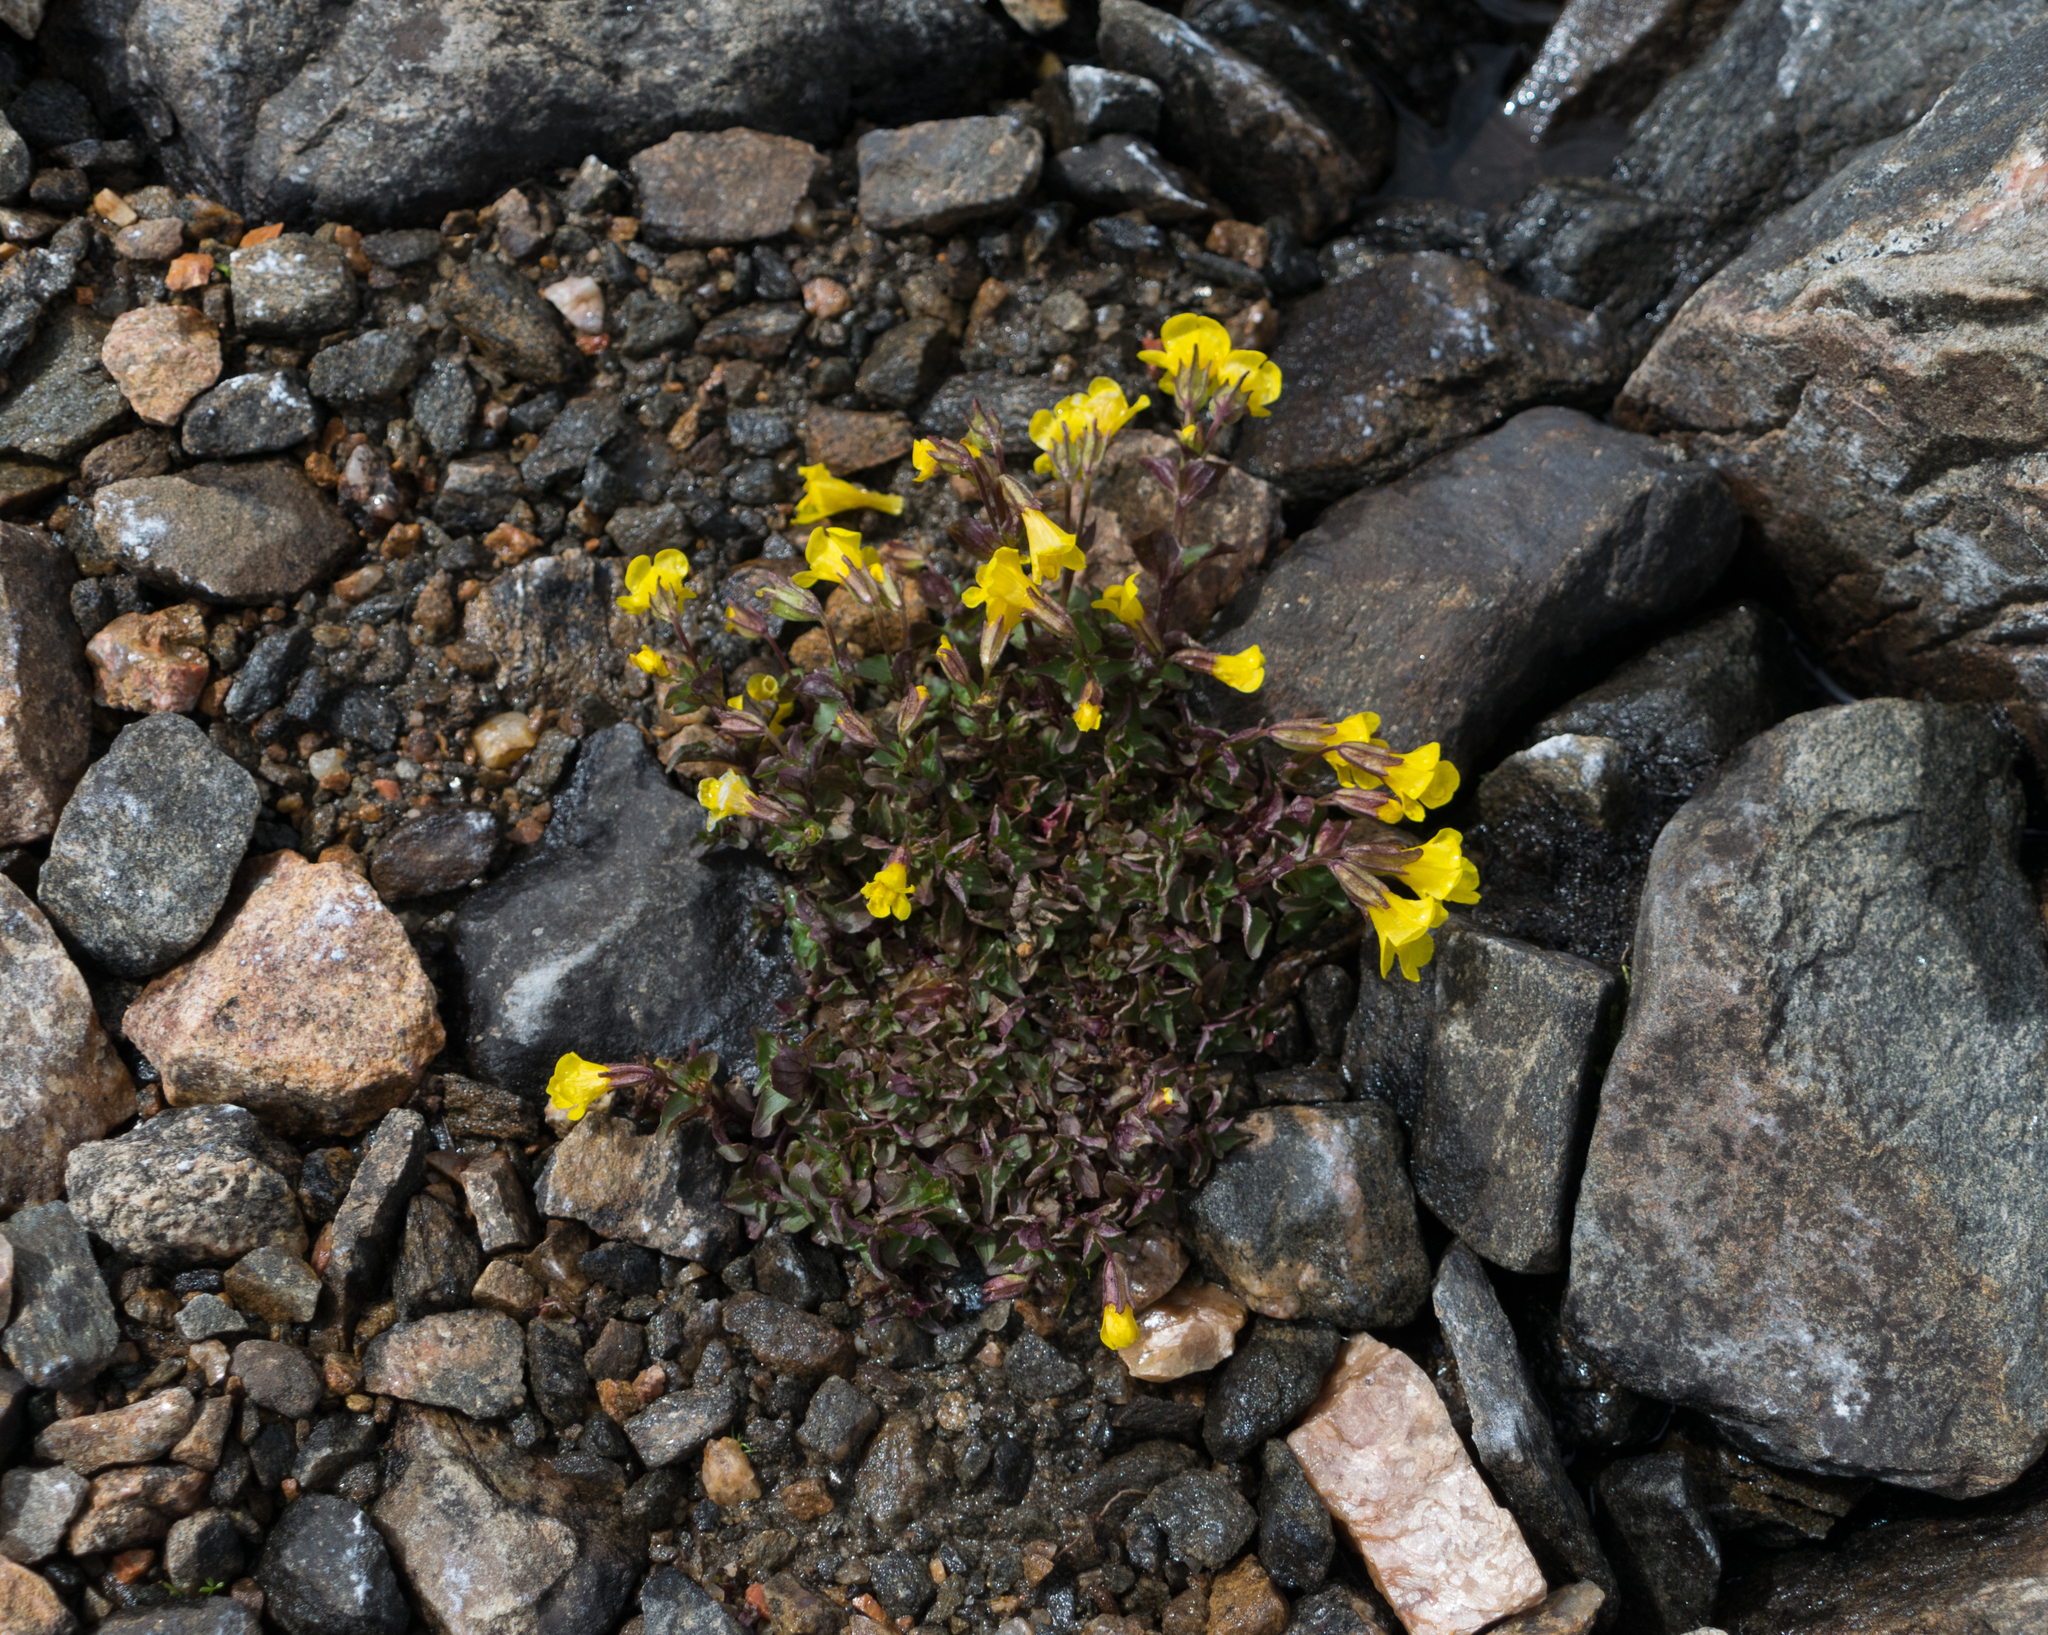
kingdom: Plantae
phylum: Tracheophyta
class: Magnoliopsida
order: Lamiales
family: Phrymaceae
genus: Erythranthe
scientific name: Erythranthe minor
